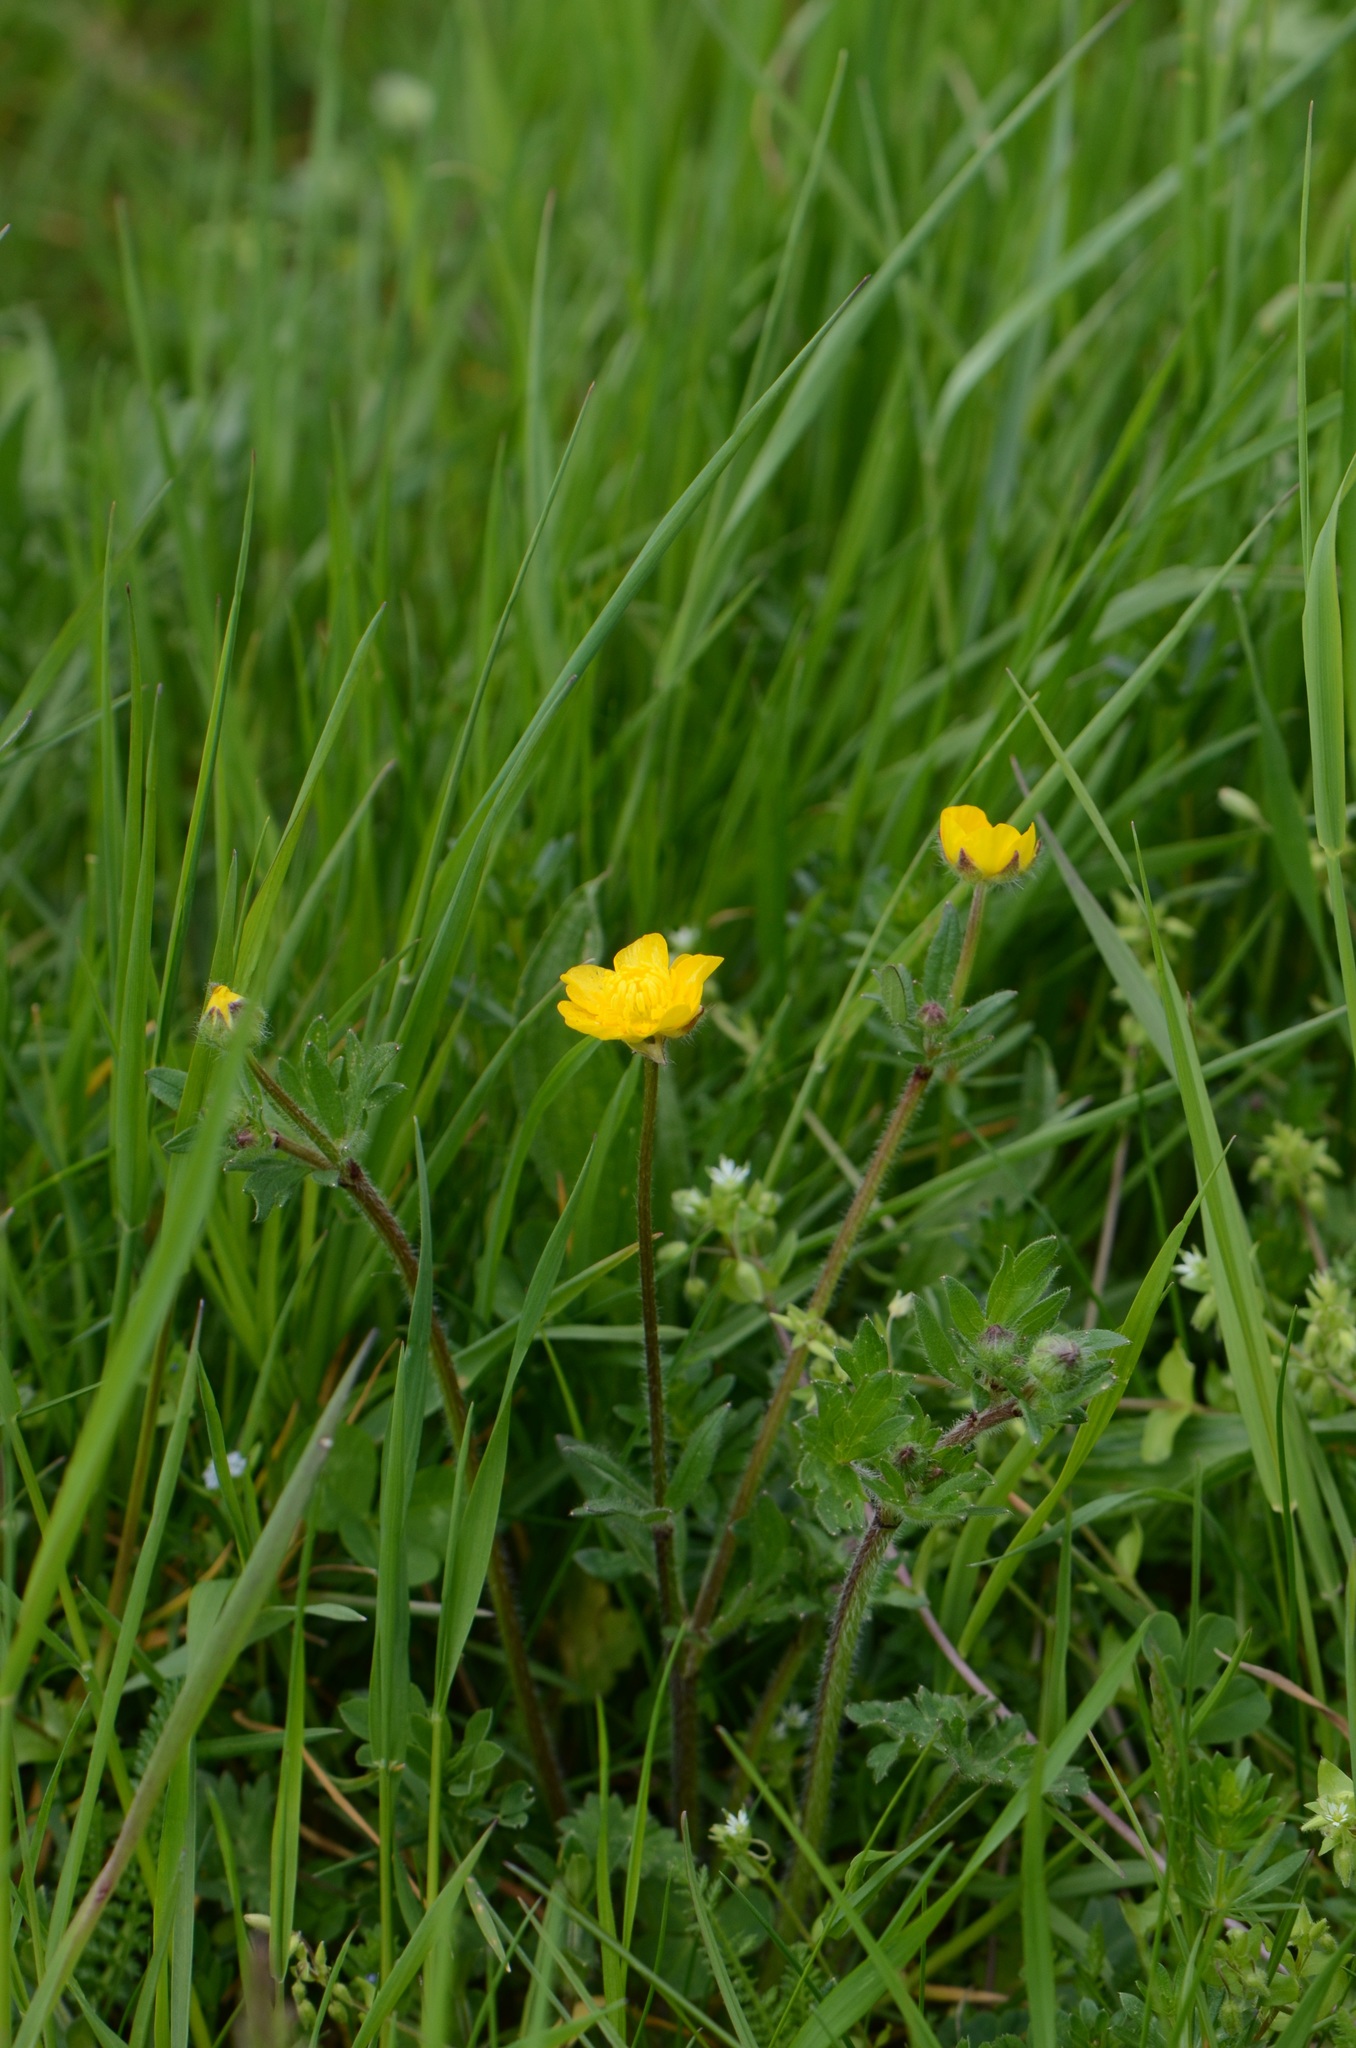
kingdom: Plantae
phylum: Tracheophyta
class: Magnoliopsida
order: Ranunculales
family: Ranunculaceae
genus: Ranunculus
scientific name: Ranunculus bulbosus
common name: Bulbous buttercup
